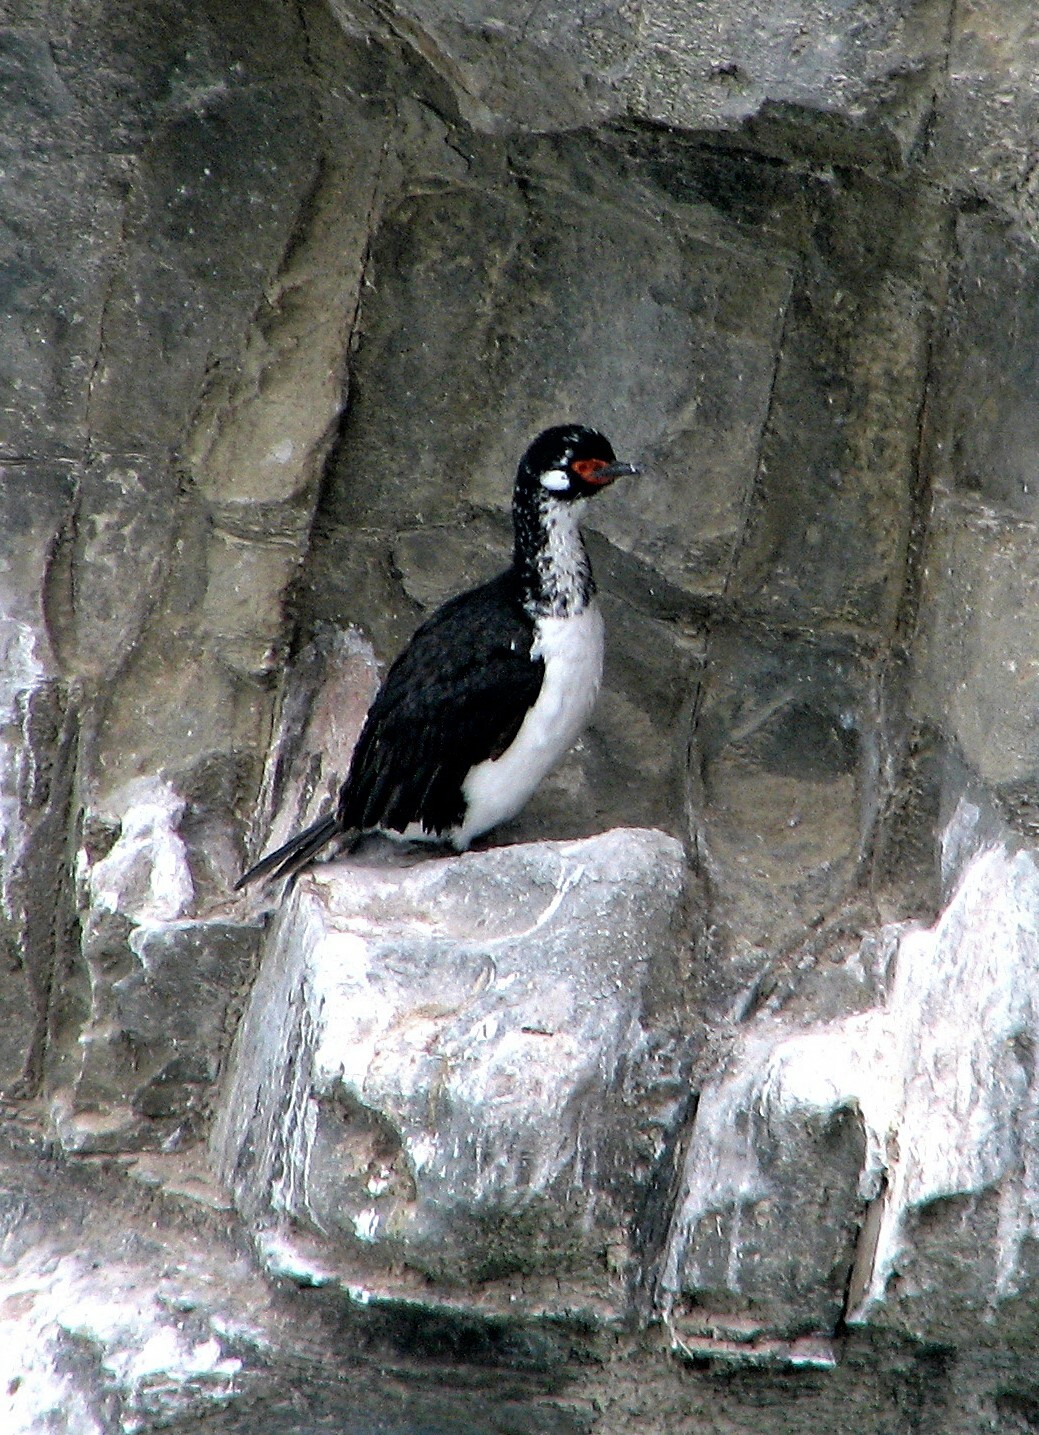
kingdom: Animalia
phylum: Chordata
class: Aves
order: Suliformes
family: Phalacrocoracidae
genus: Phalacrocorax
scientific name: Phalacrocorax magellanicus
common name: Rock shag
